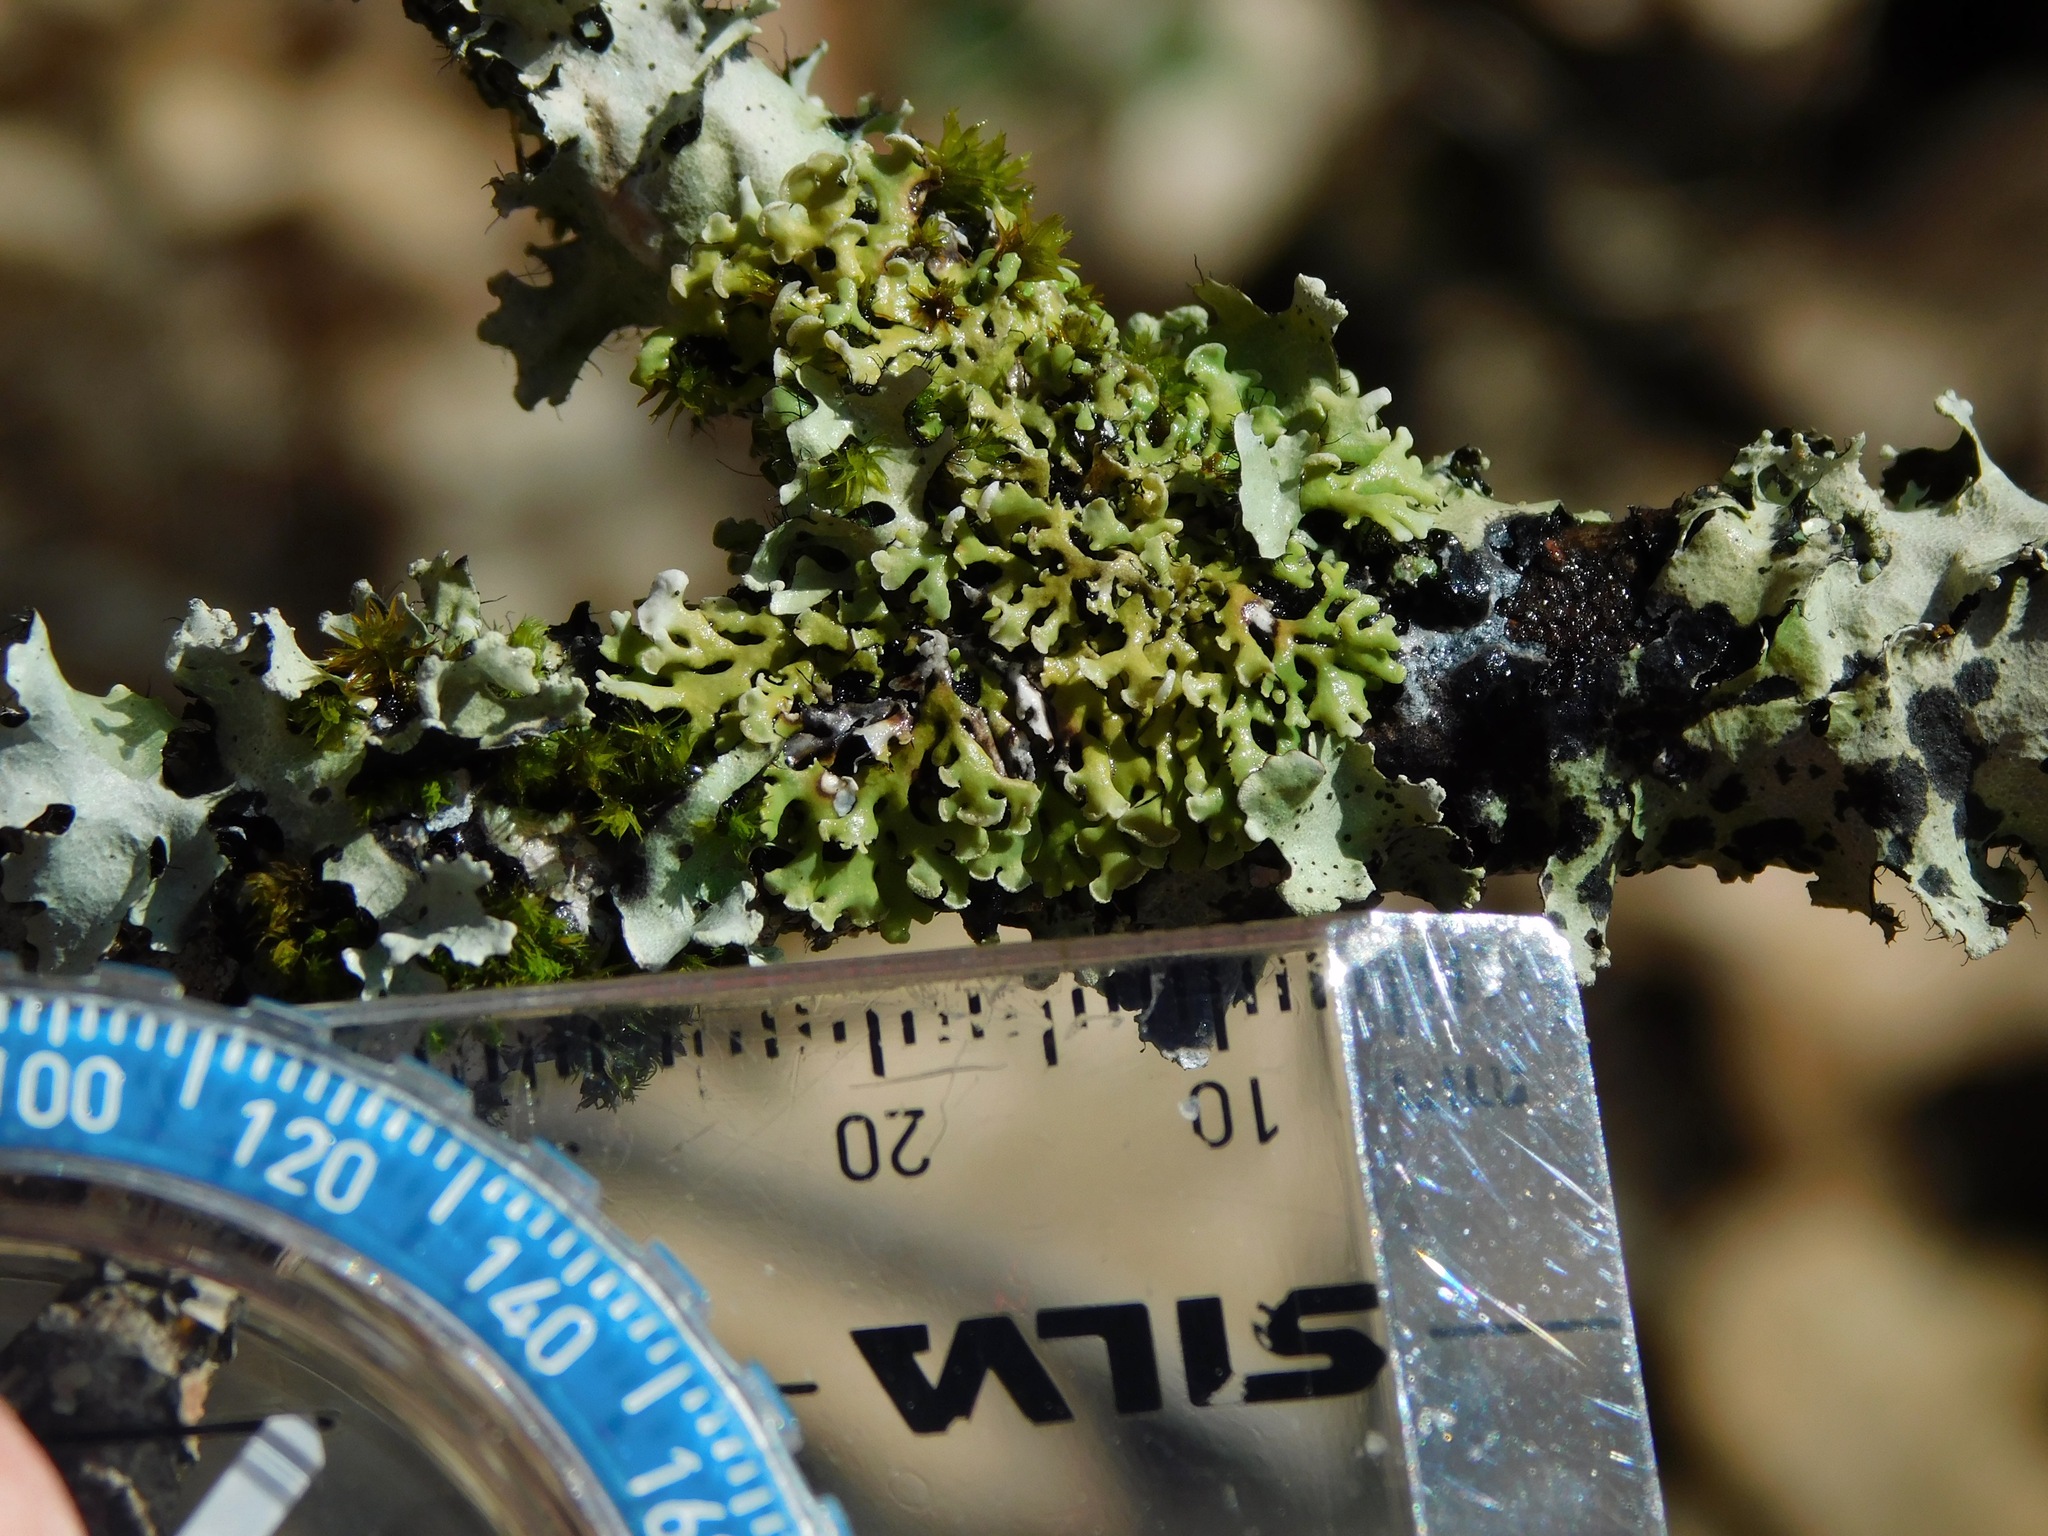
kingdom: Fungi
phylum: Ascomycota
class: Lecanoromycetes
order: Caliciales
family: Physciaceae
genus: Polyblastidium
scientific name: Polyblastidium japonicum
